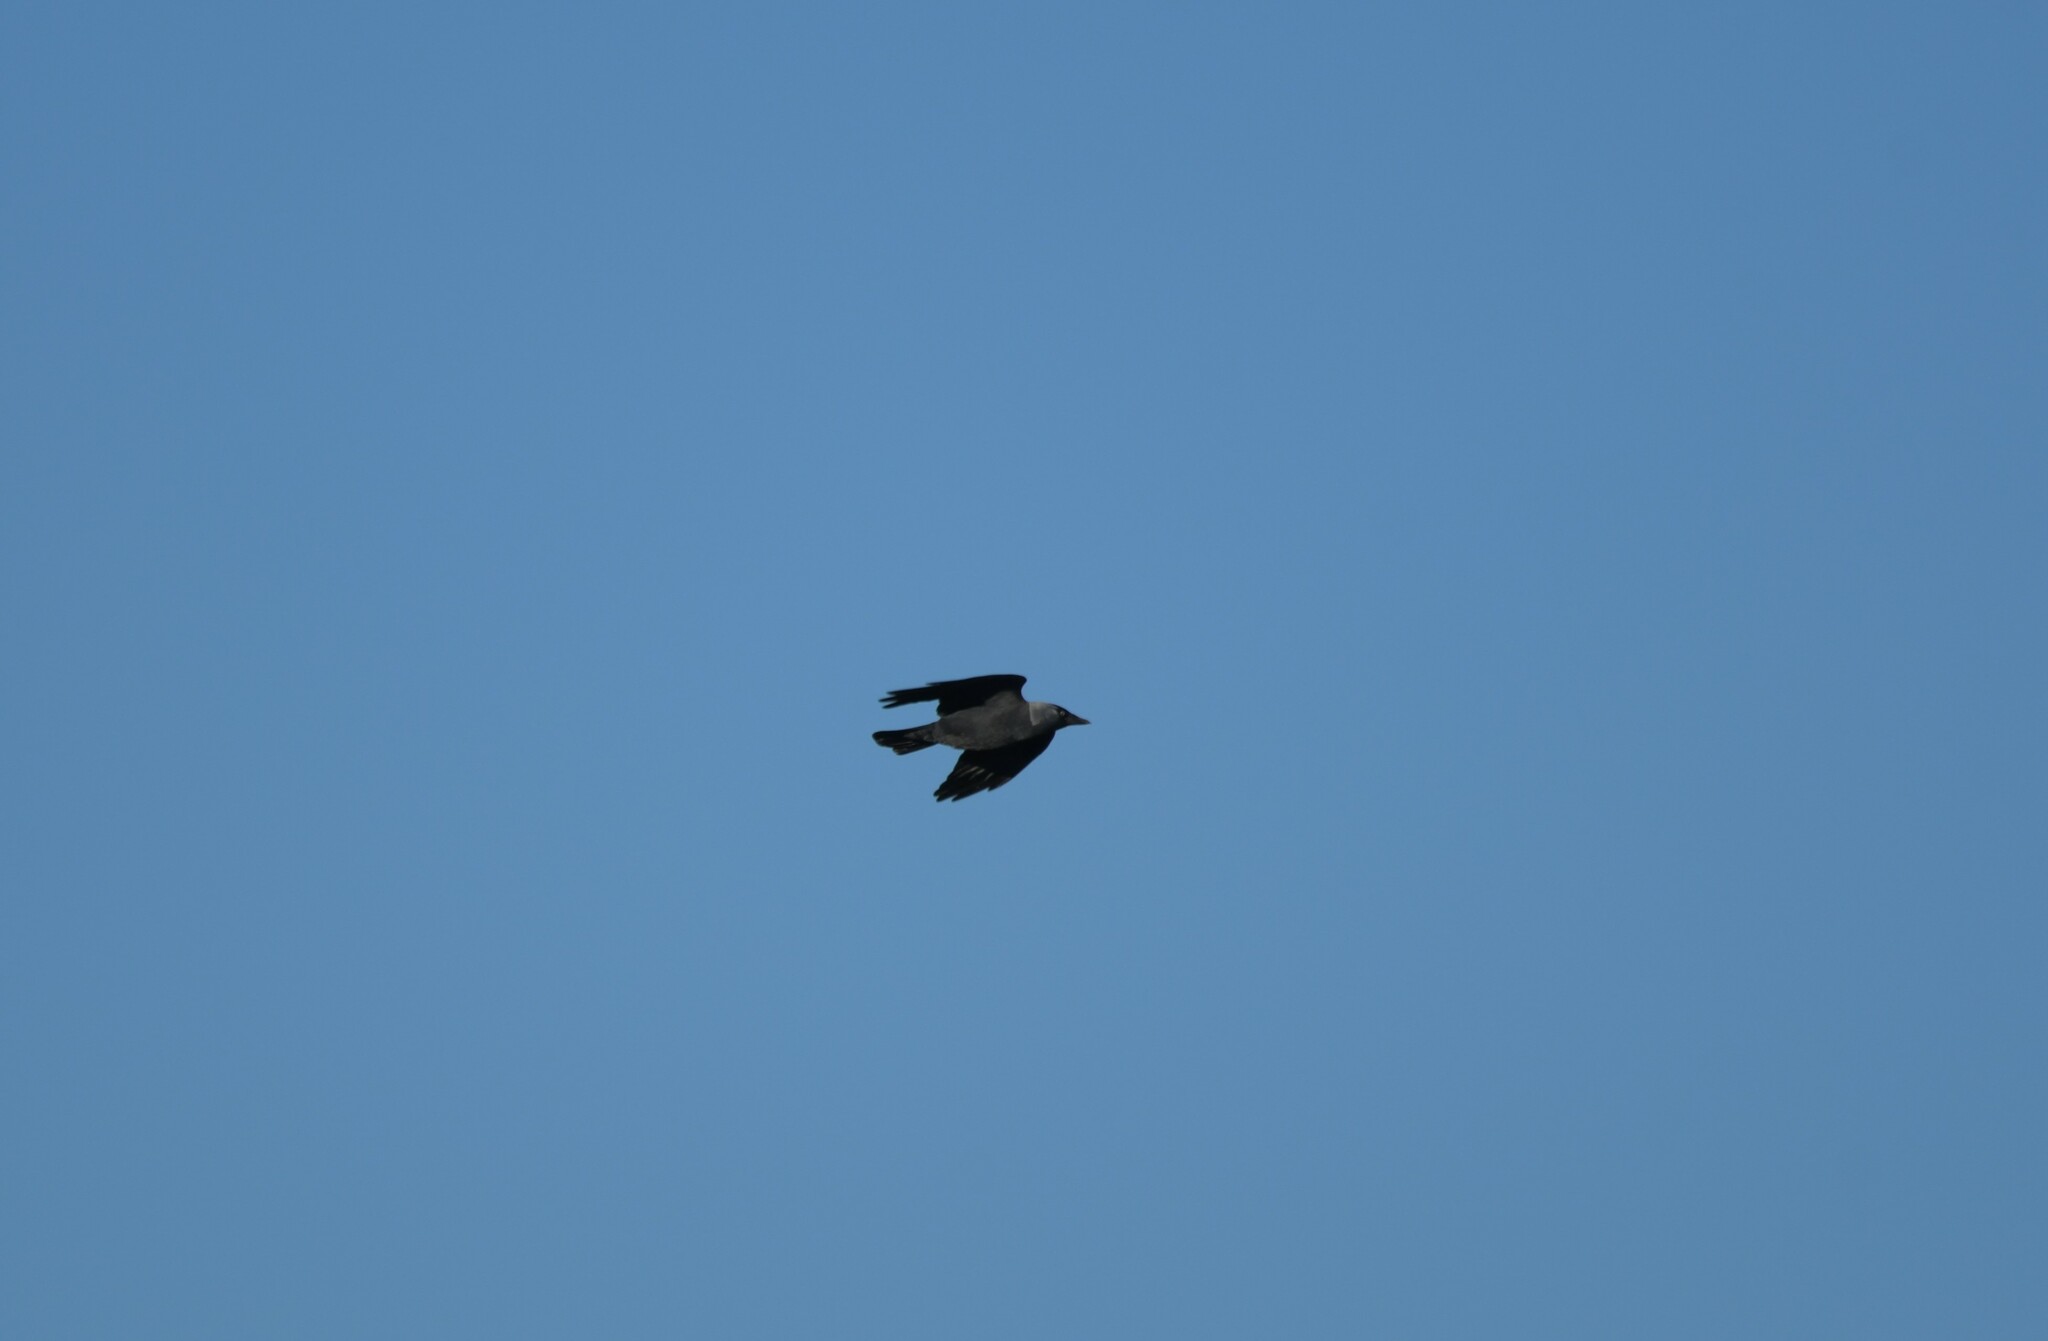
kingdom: Animalia
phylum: Chordata
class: Aves
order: Passeriformes
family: Corvidae
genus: Coloeus
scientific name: Coloeus monedula
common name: Western jackdaw
